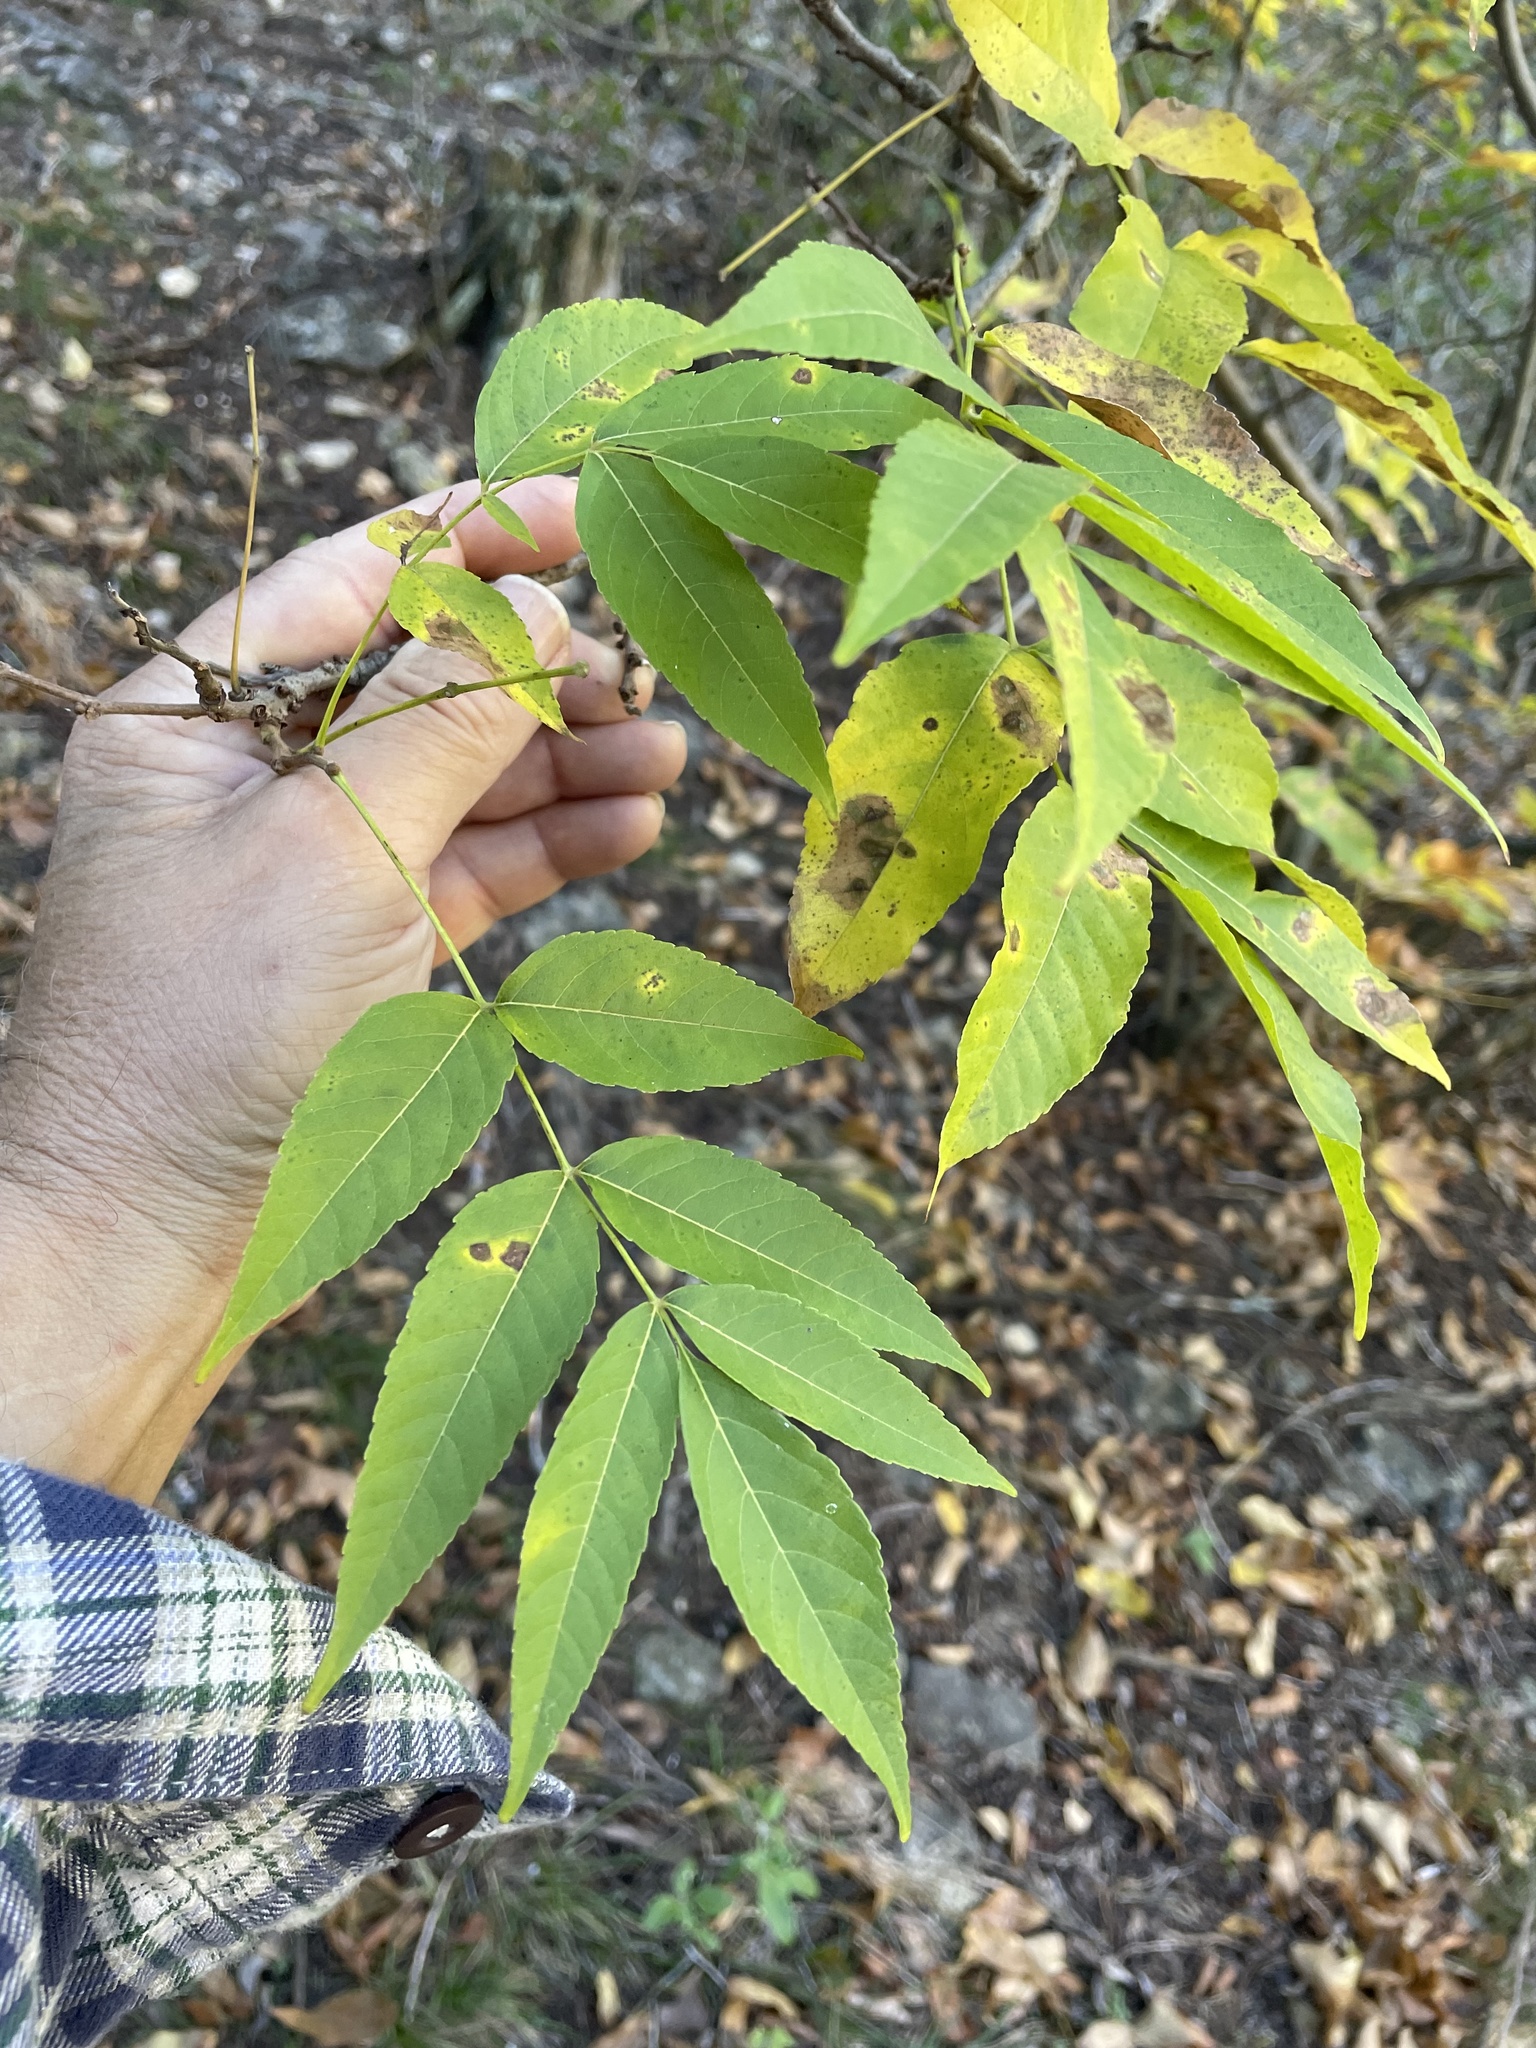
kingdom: Plantae
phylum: Tracheophyta
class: Magnoliopsida
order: Sapindales
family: Sapindaceae
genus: Ungnadia
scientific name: Ungnadia speciosa
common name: Texas-buckeye
